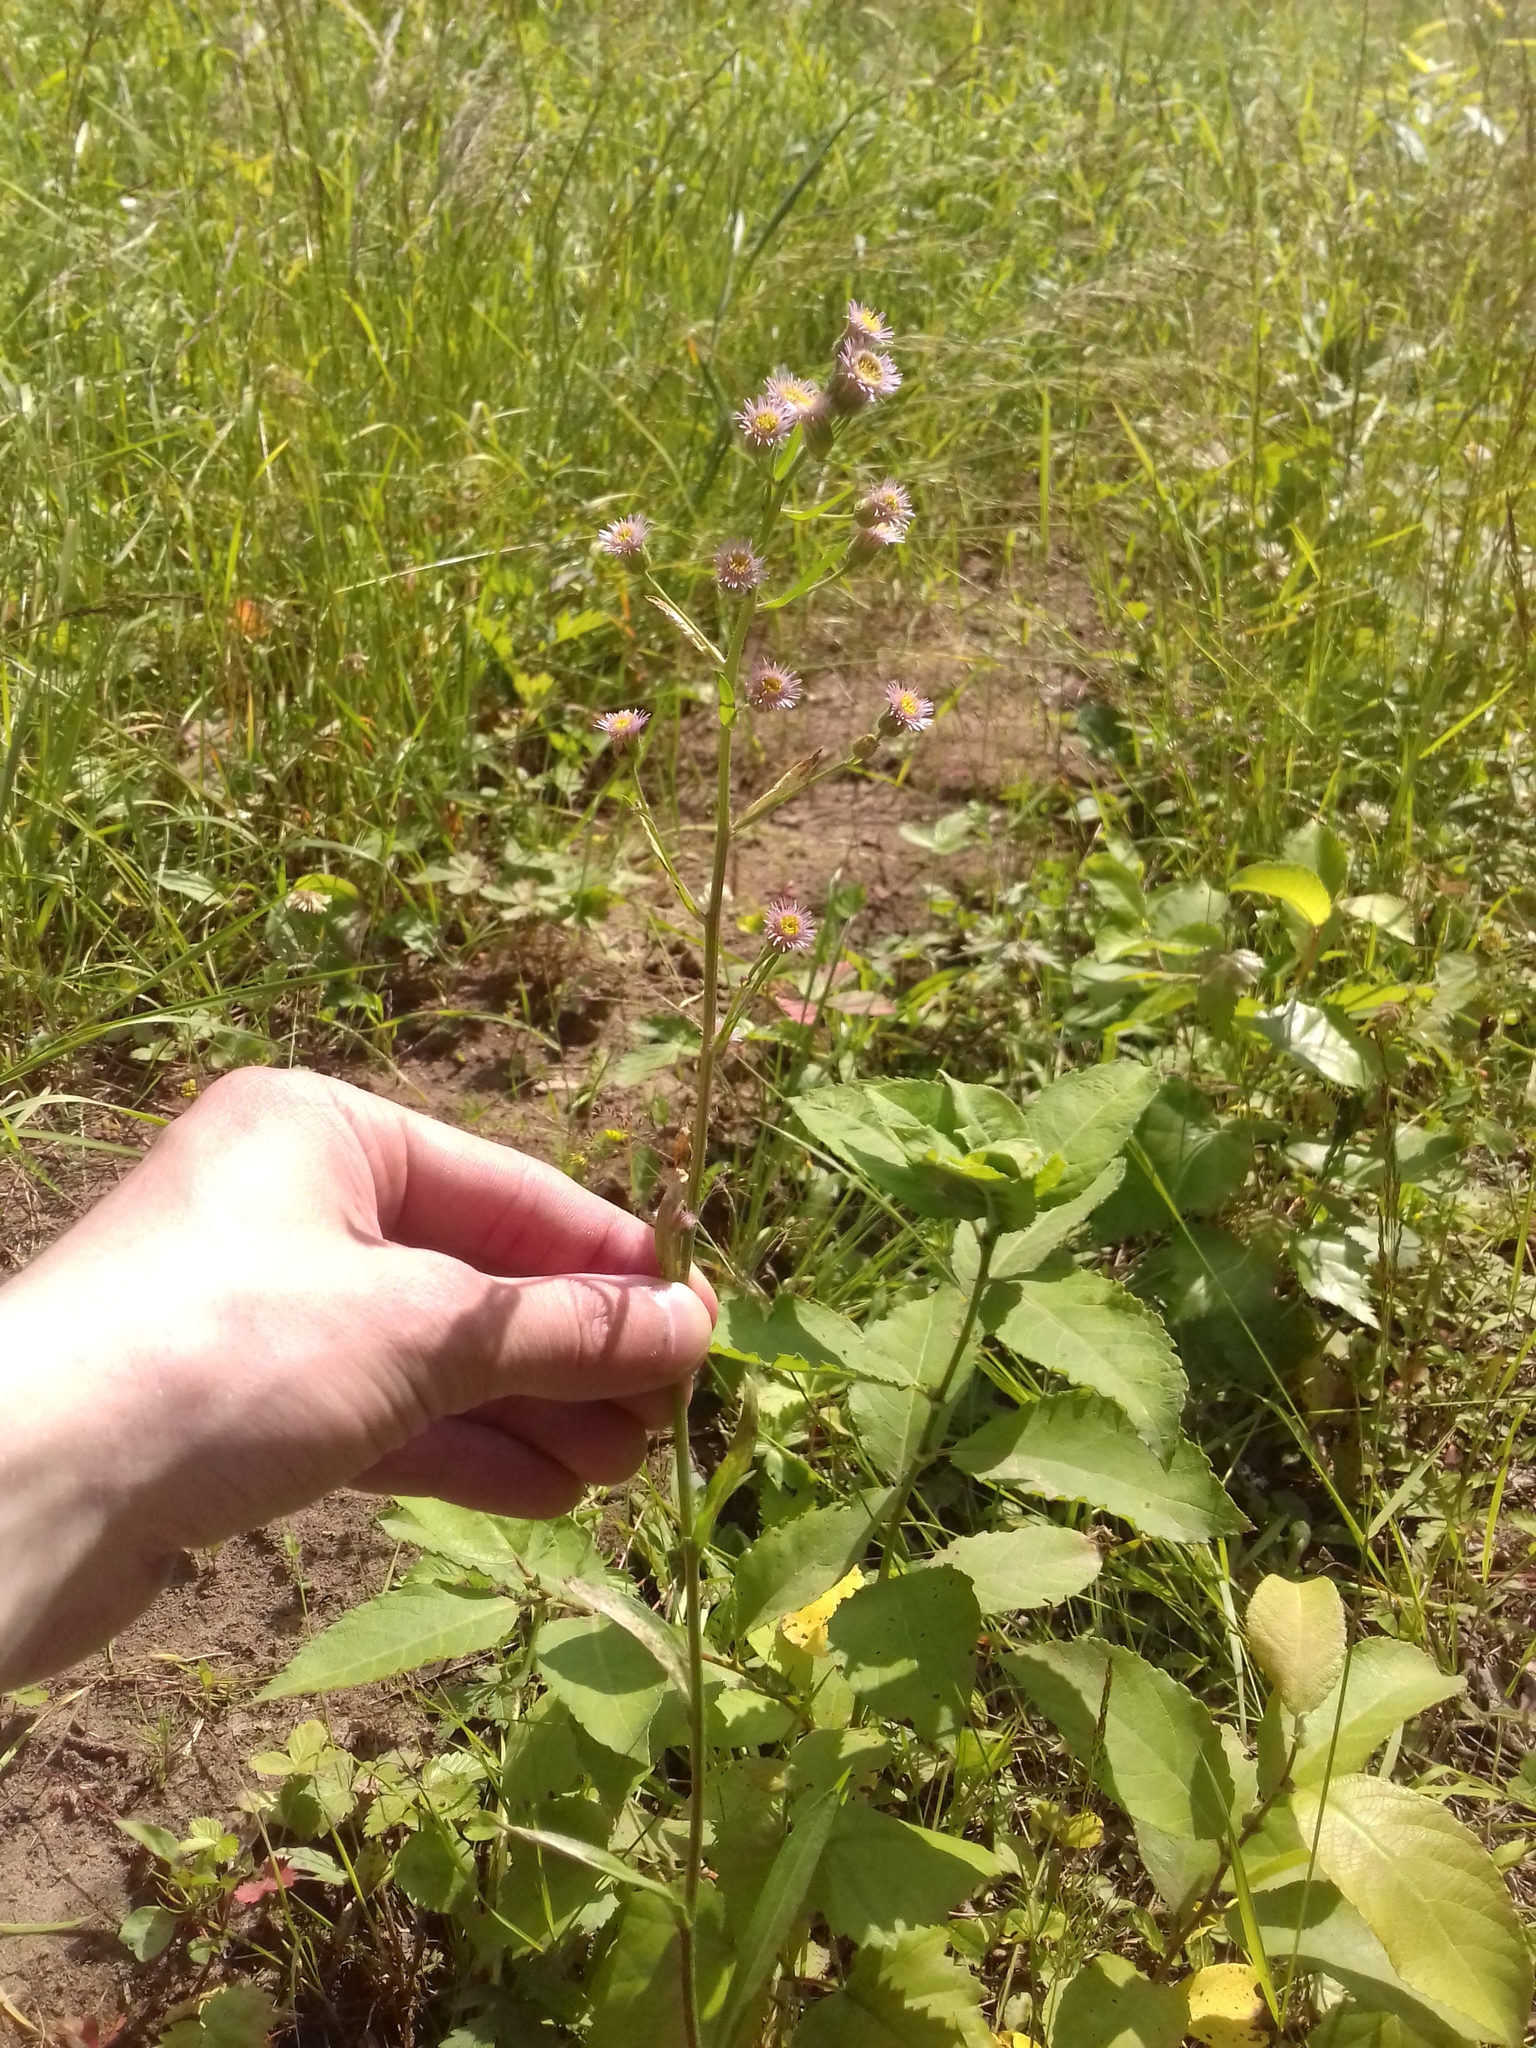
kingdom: Plantae
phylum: Tracheophyta
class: Magnoliopsida
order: Asterales
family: Asteraceae
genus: Erigeron
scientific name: Erigeron acris
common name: Blue fleabane
